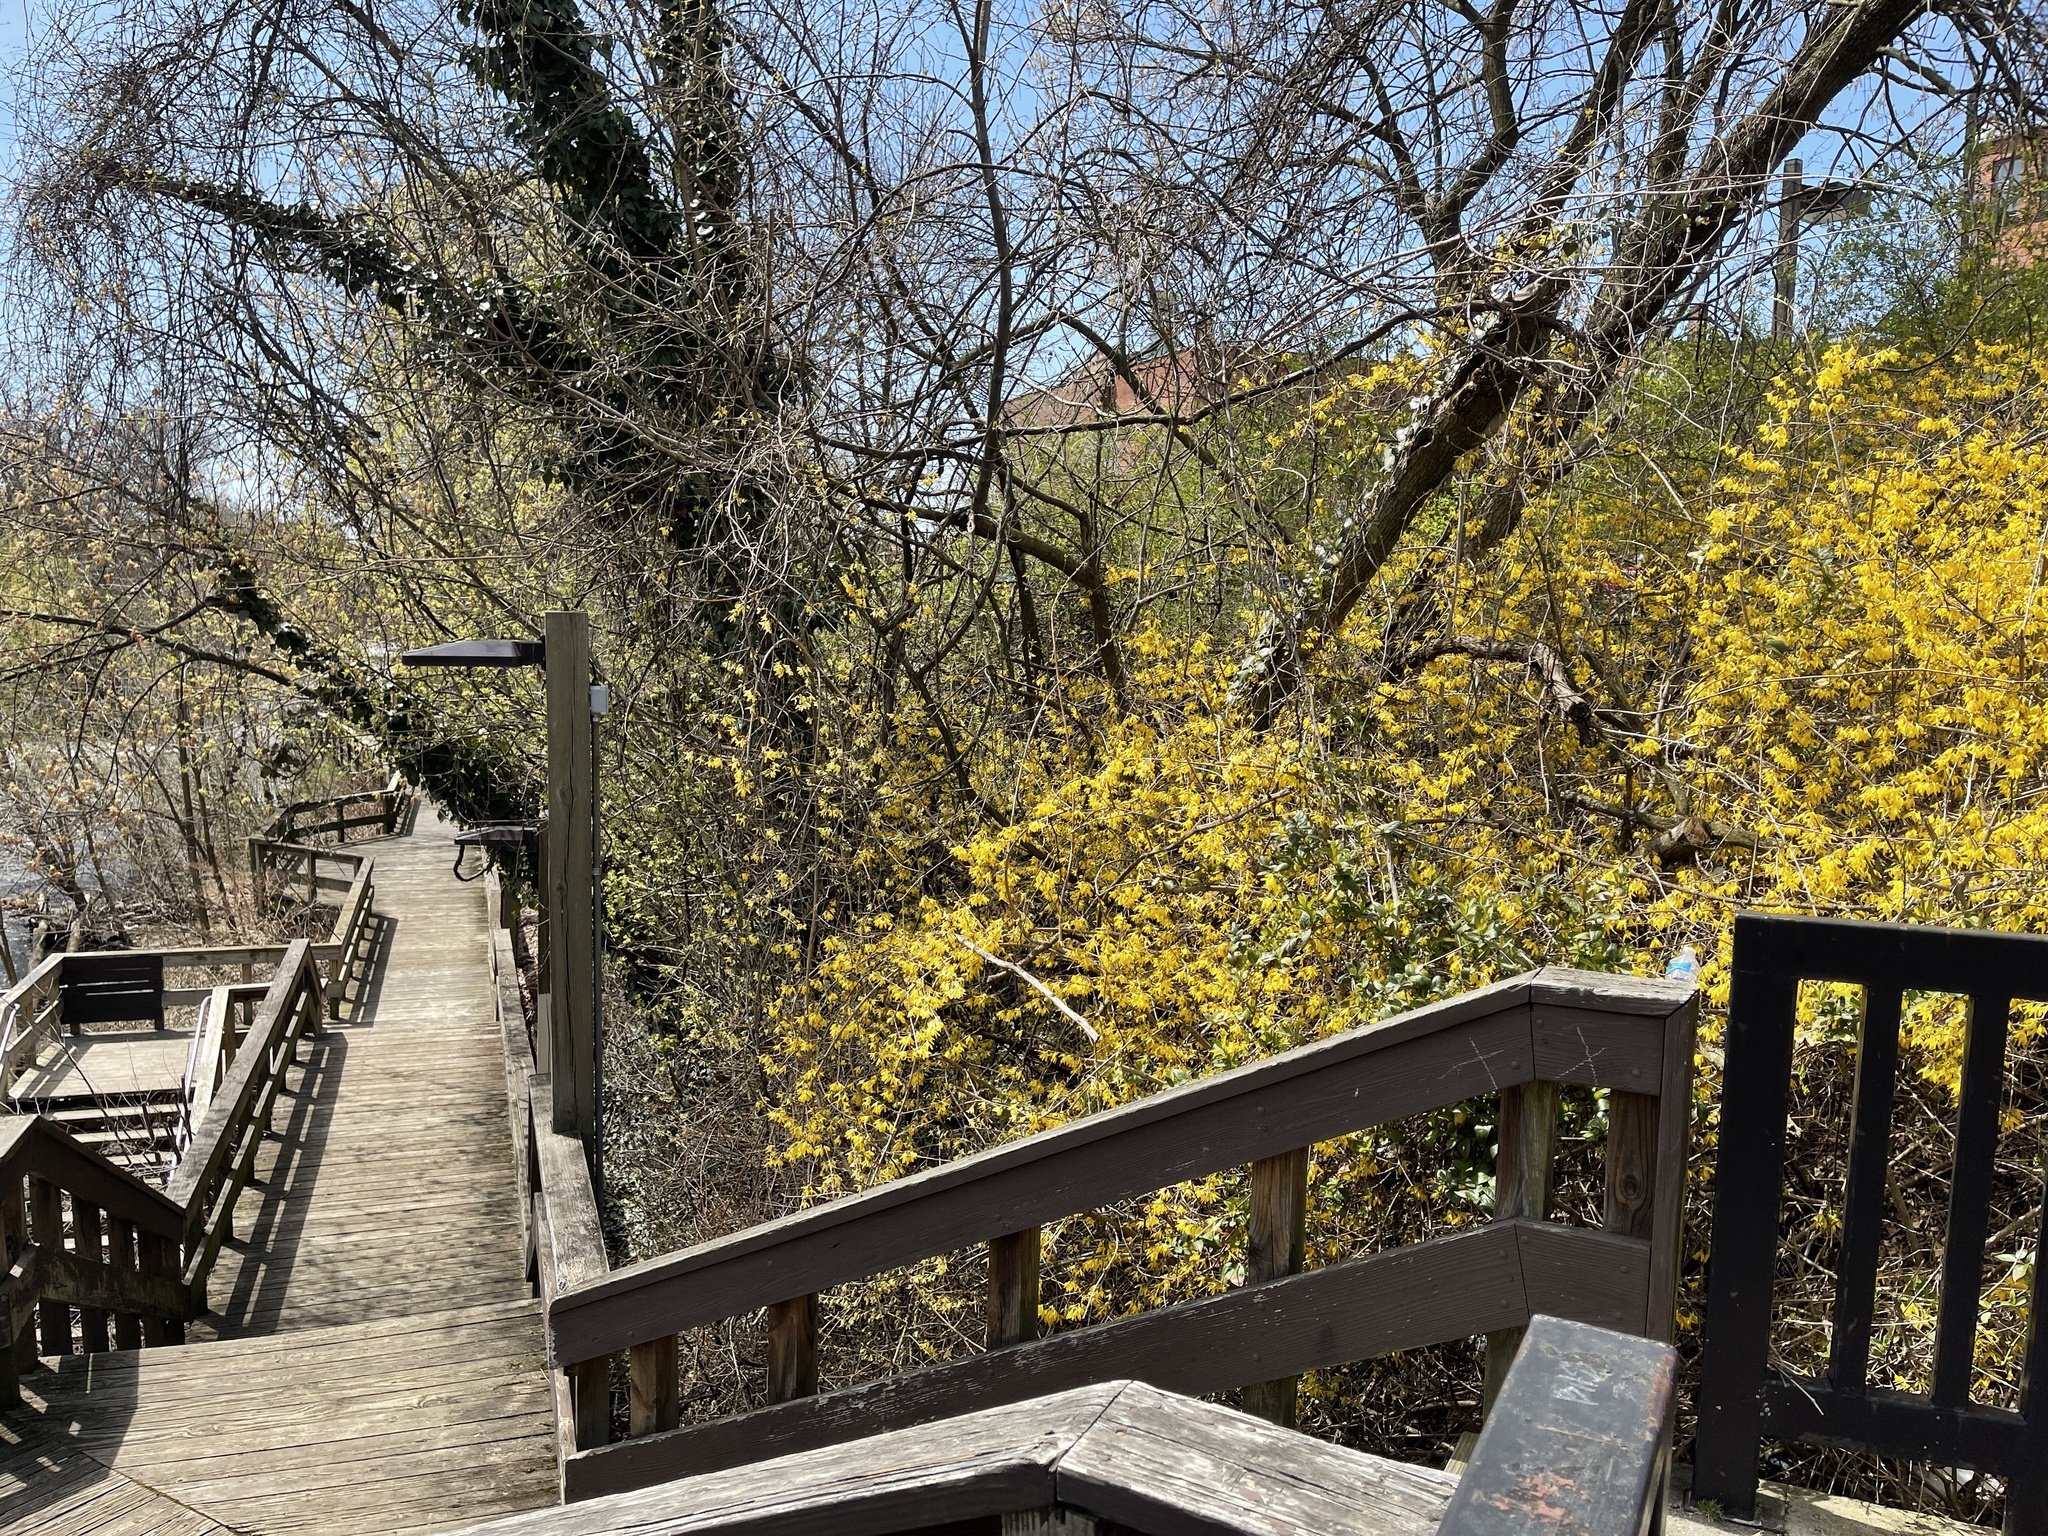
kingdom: Plantae
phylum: Tracheophyta
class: Magnoliopsida
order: Lamiales
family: Oleaceae
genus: Forsythia
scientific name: Forsythia intermedia
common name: Forsythia
